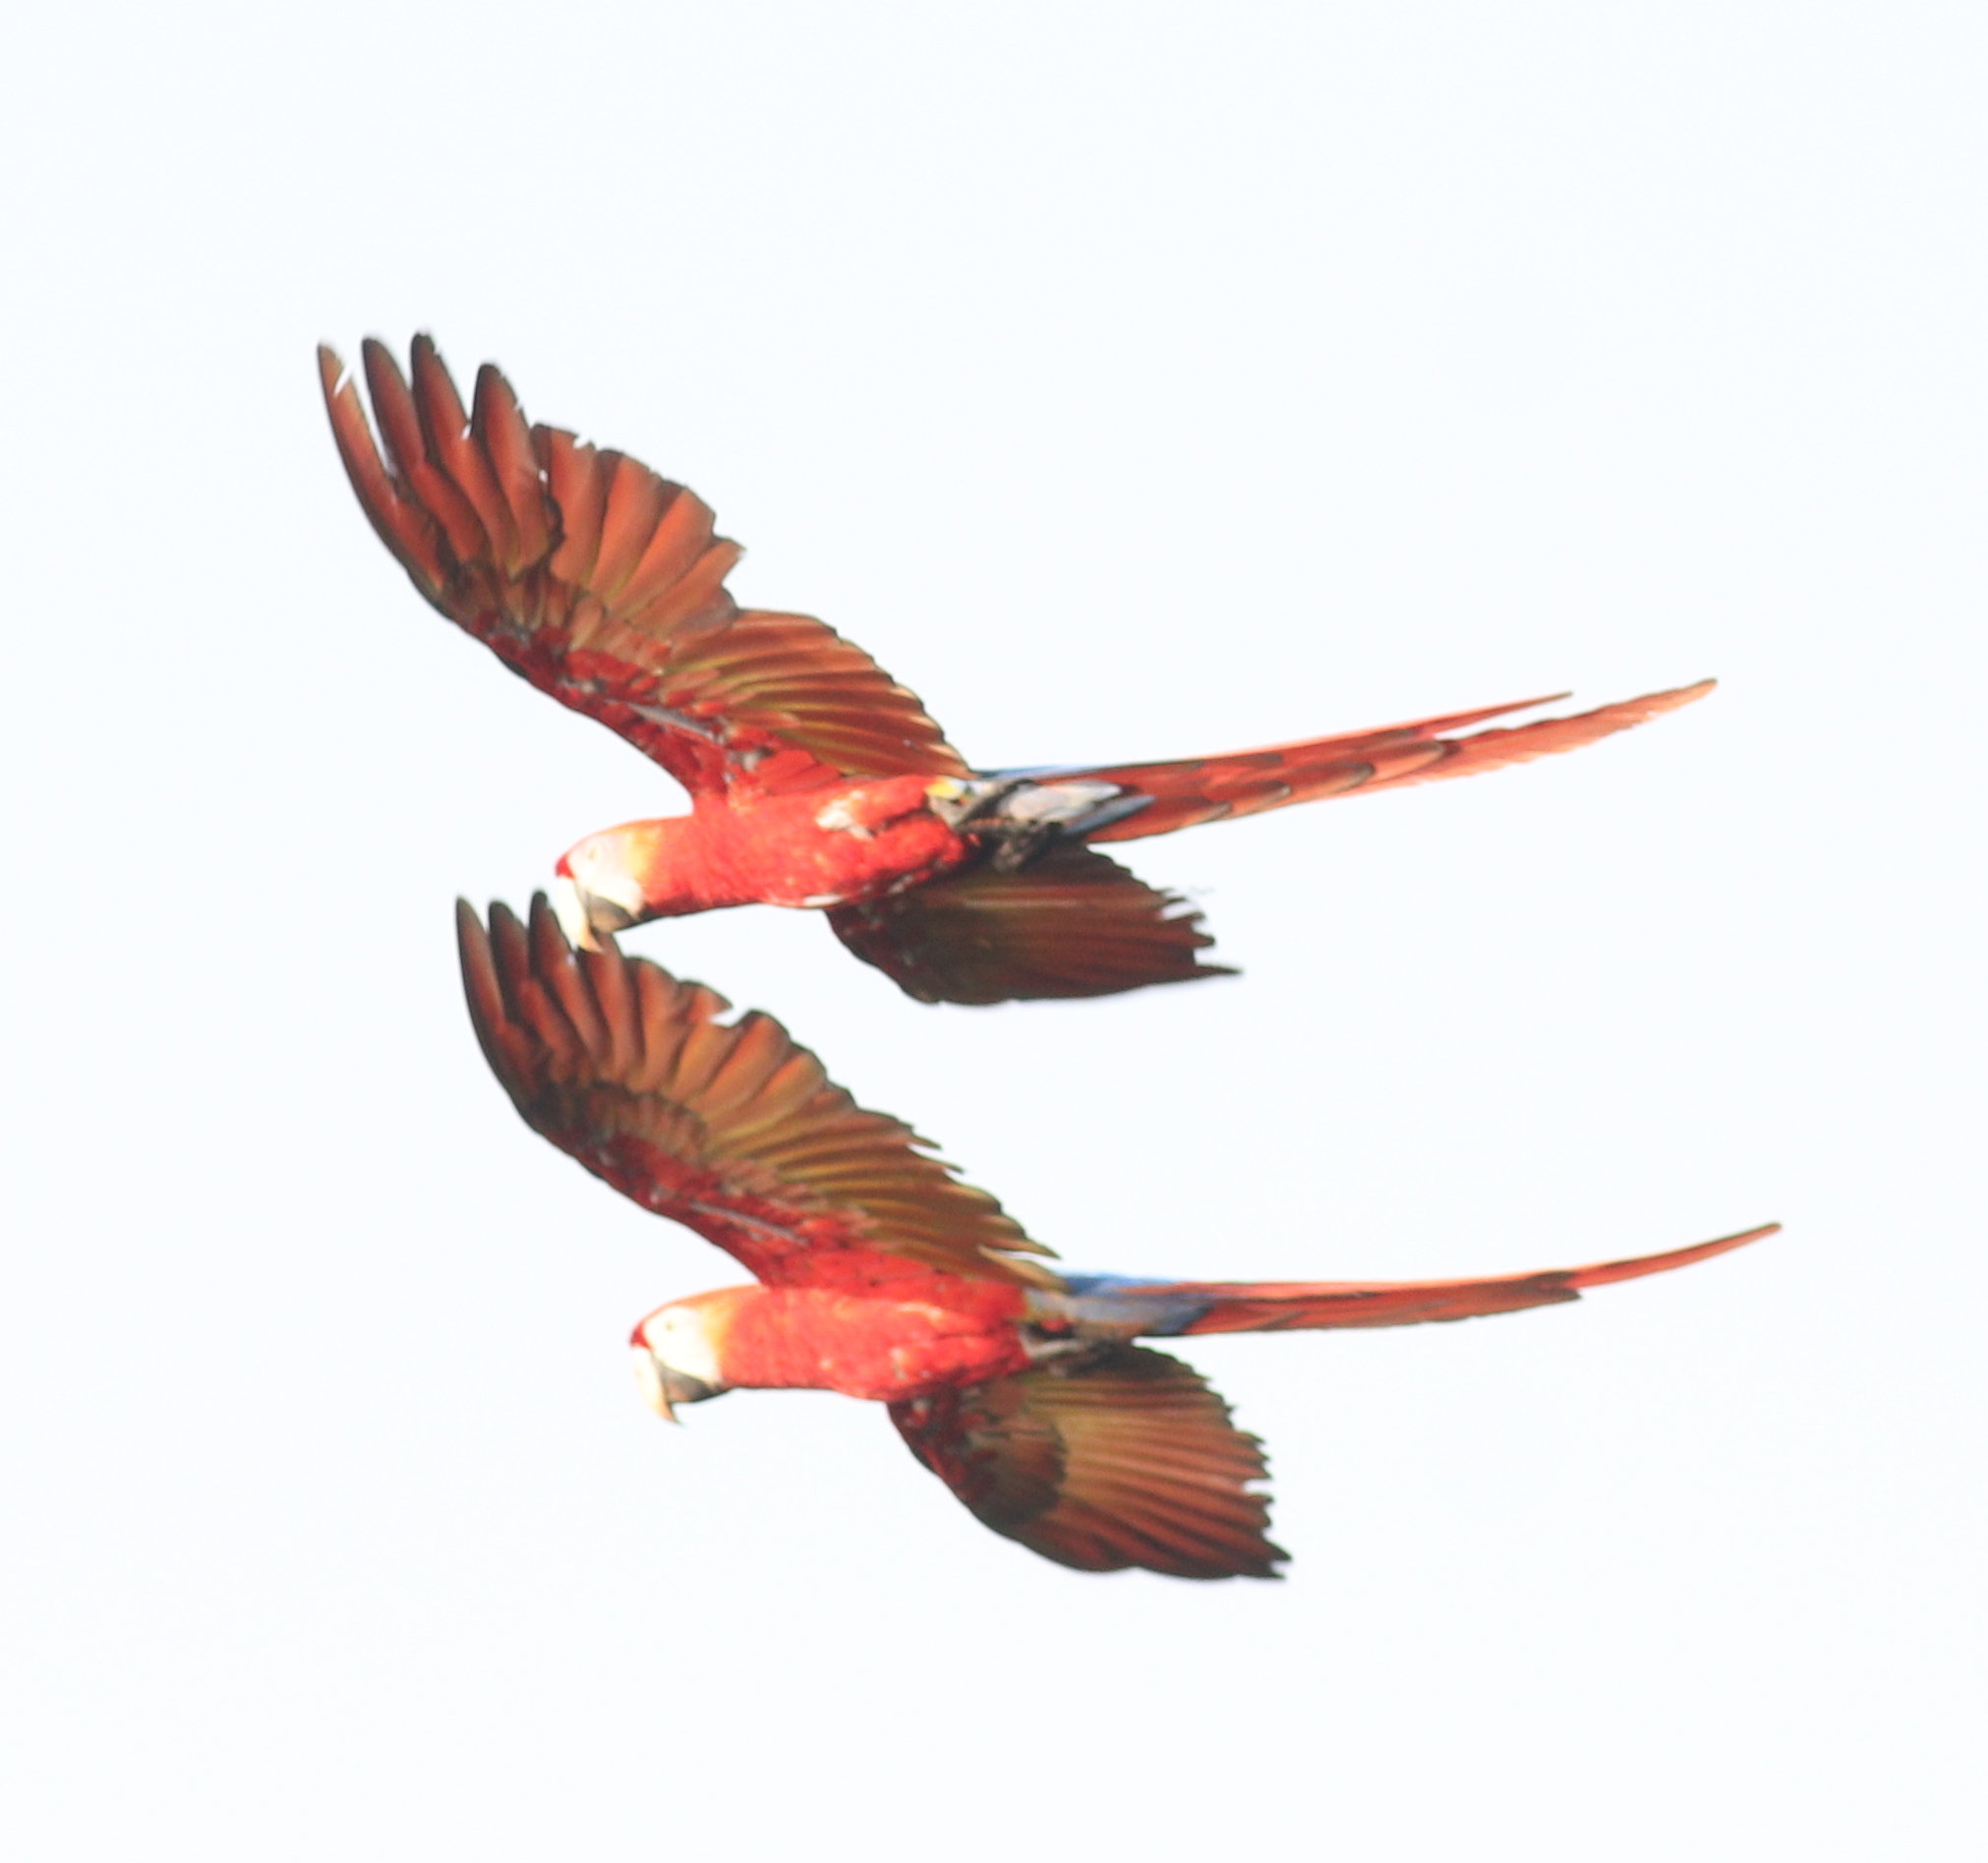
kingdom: Animalia
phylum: Chordata
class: Aves
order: Psittaciformes
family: Psittacidae
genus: Ara
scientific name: Ara macao
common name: Scarlet macaw
